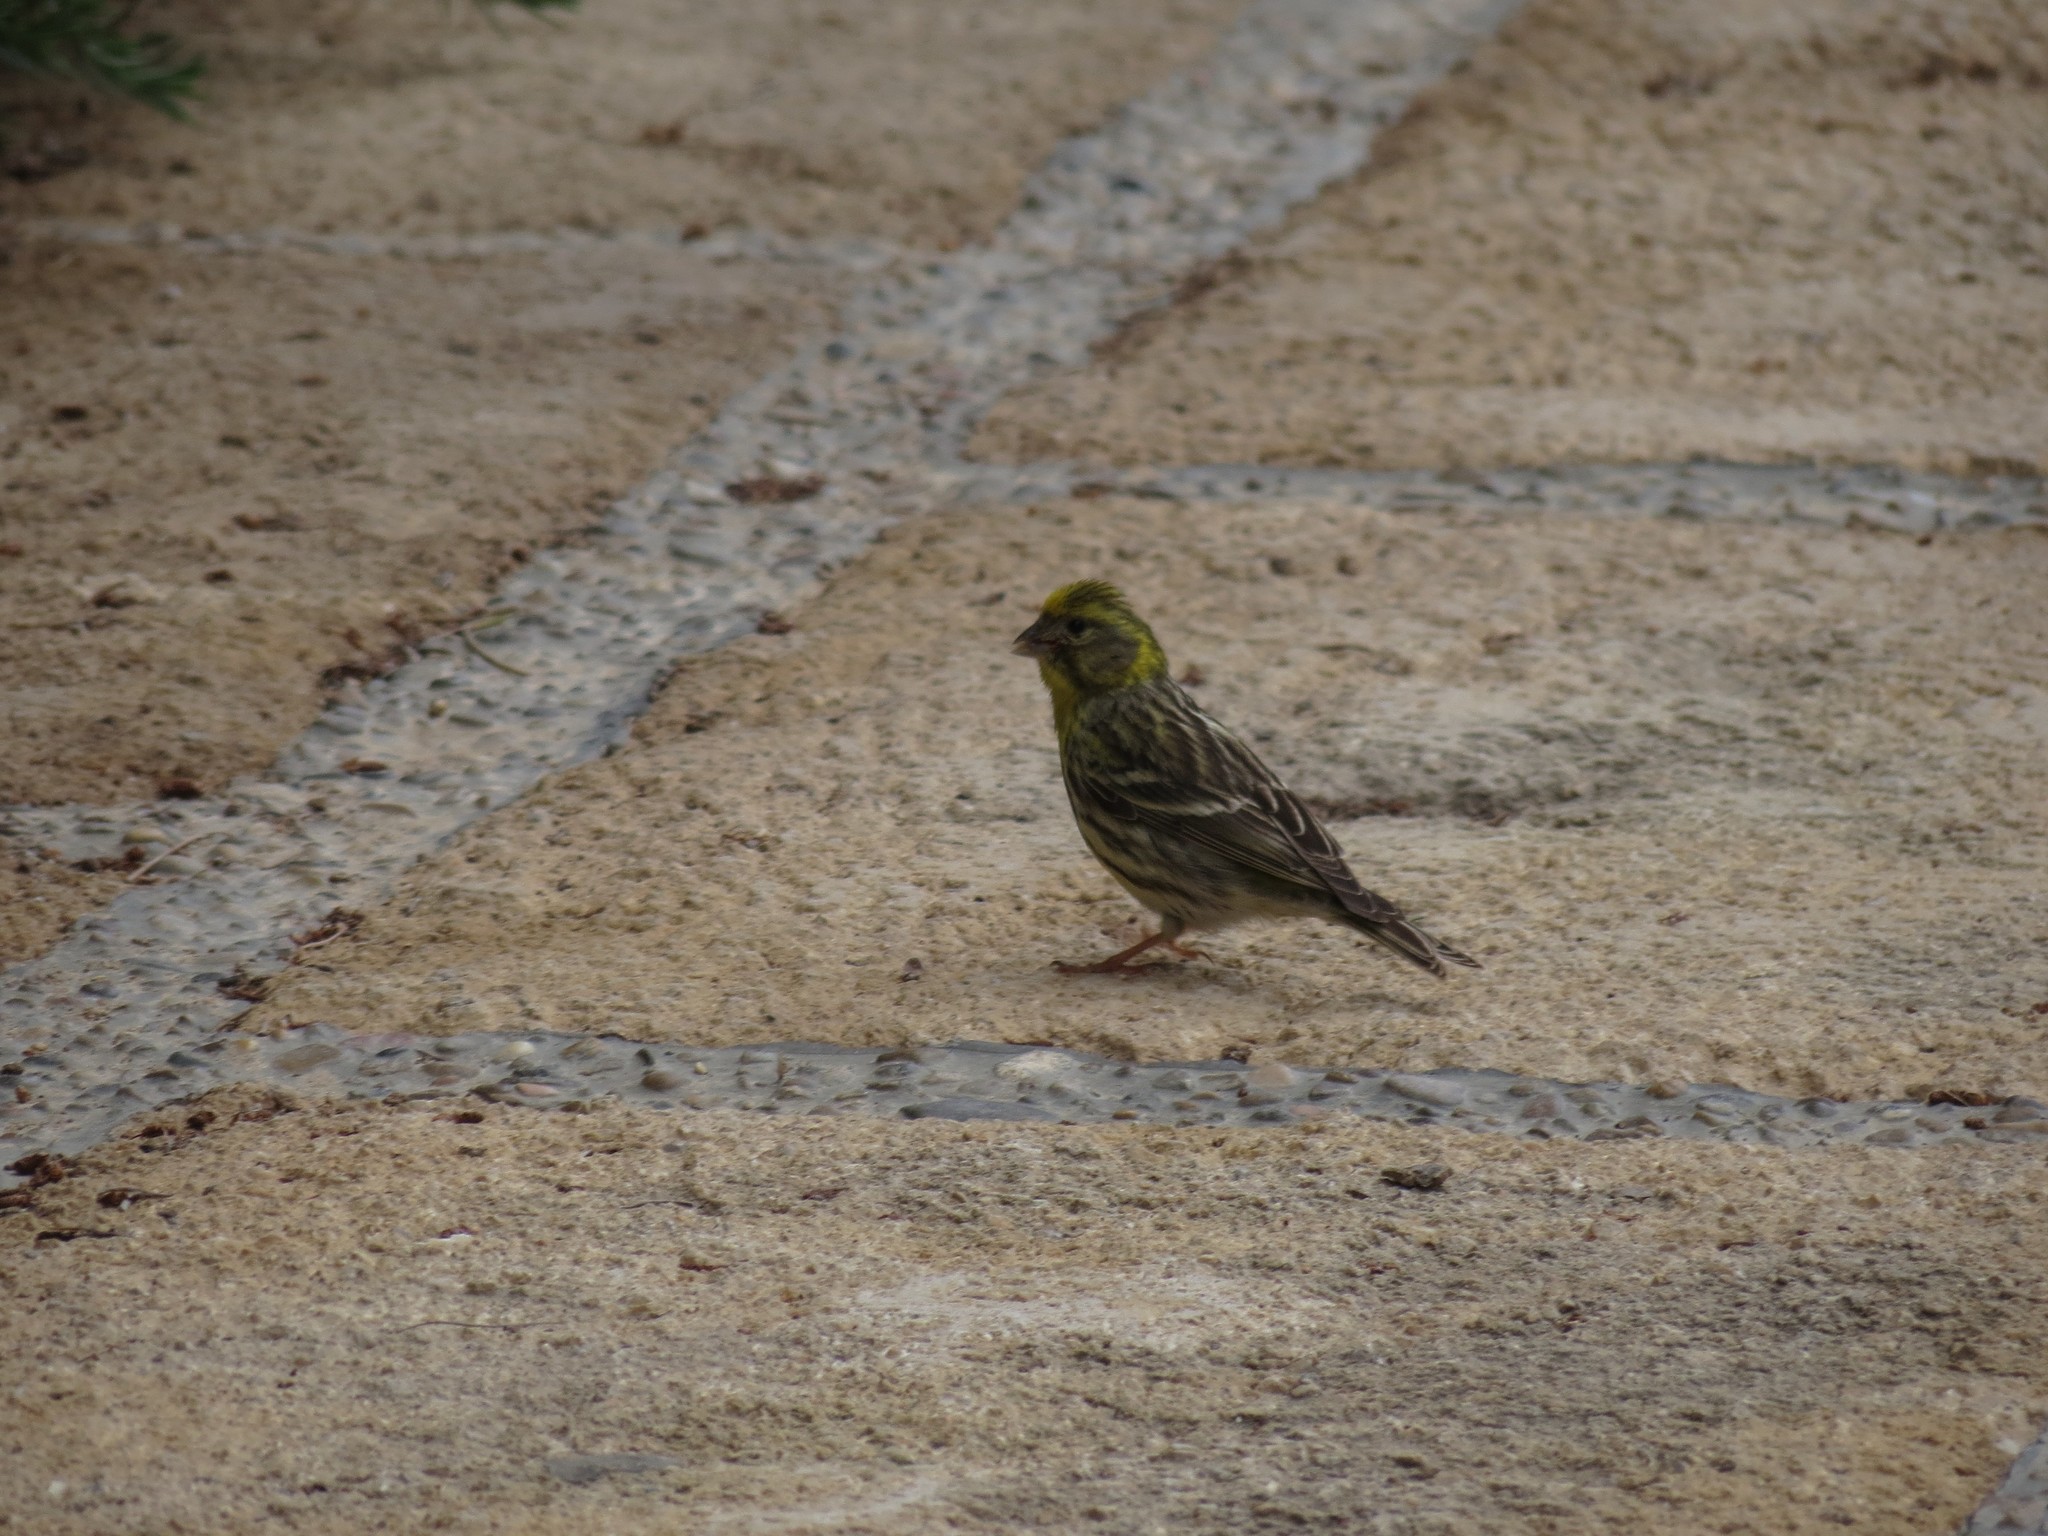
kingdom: Animalia
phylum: Chordata
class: Aves
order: Passeriformes
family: Fringillidae
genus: Serinus
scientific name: Serinus serinus
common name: European serin
